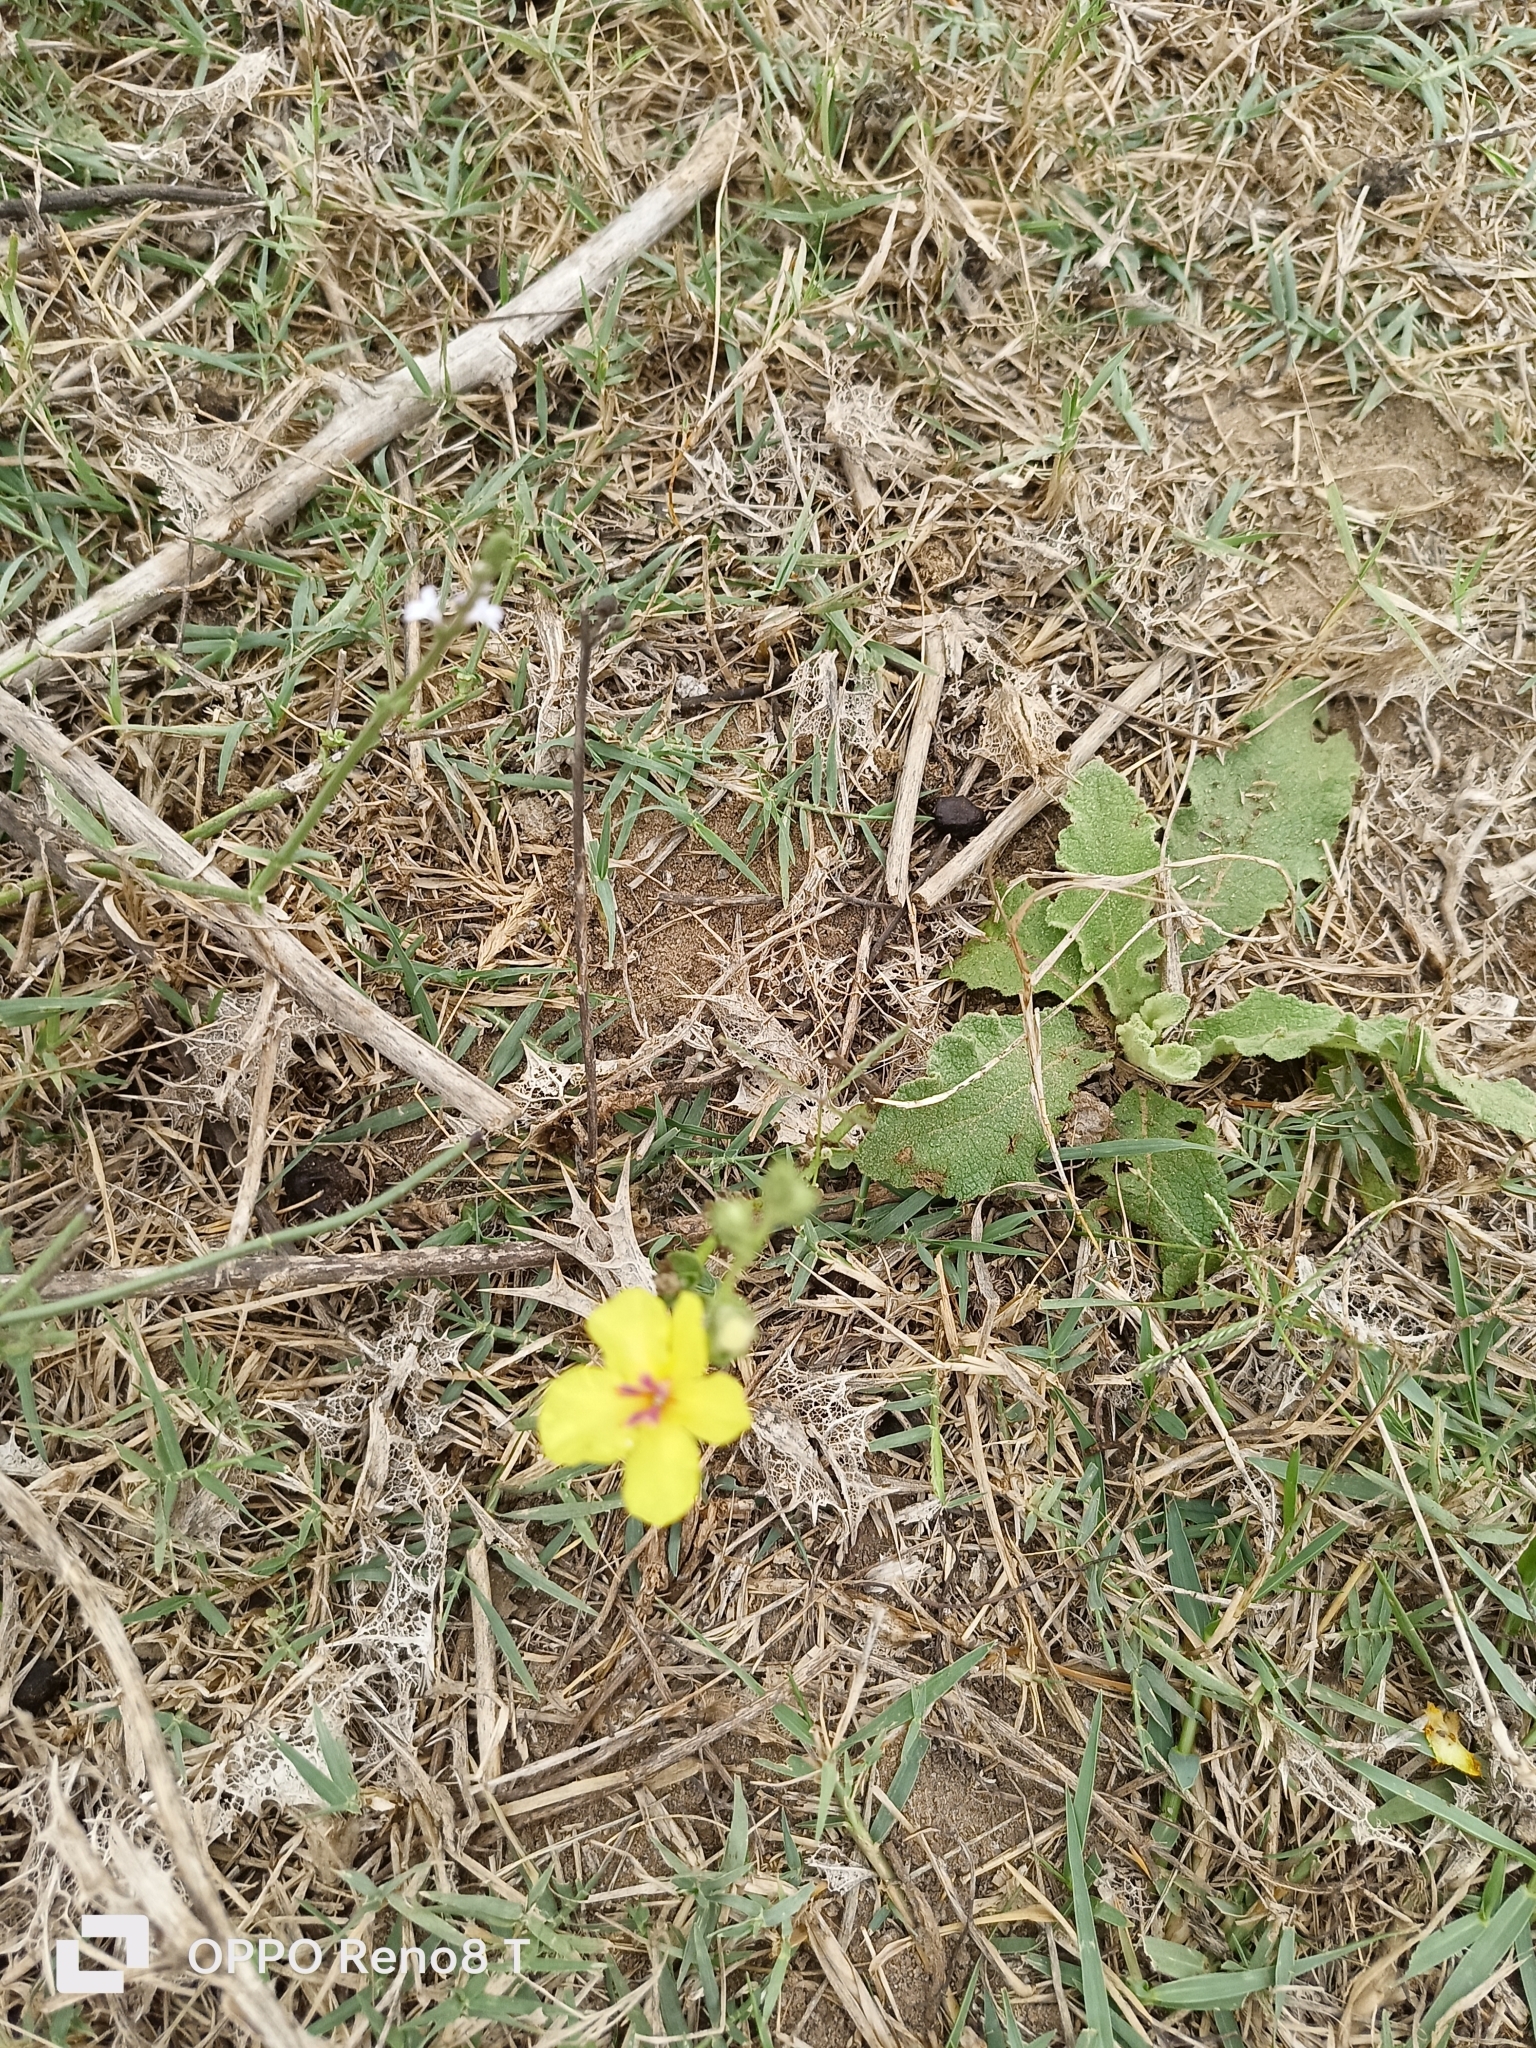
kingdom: Plantae
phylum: Tracheophyta
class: Magnoliopsida
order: Lamiales
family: Scrophulariaceae
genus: Verbascum
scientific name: Verbascum sinuatum
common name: Wavyleaf mullein
